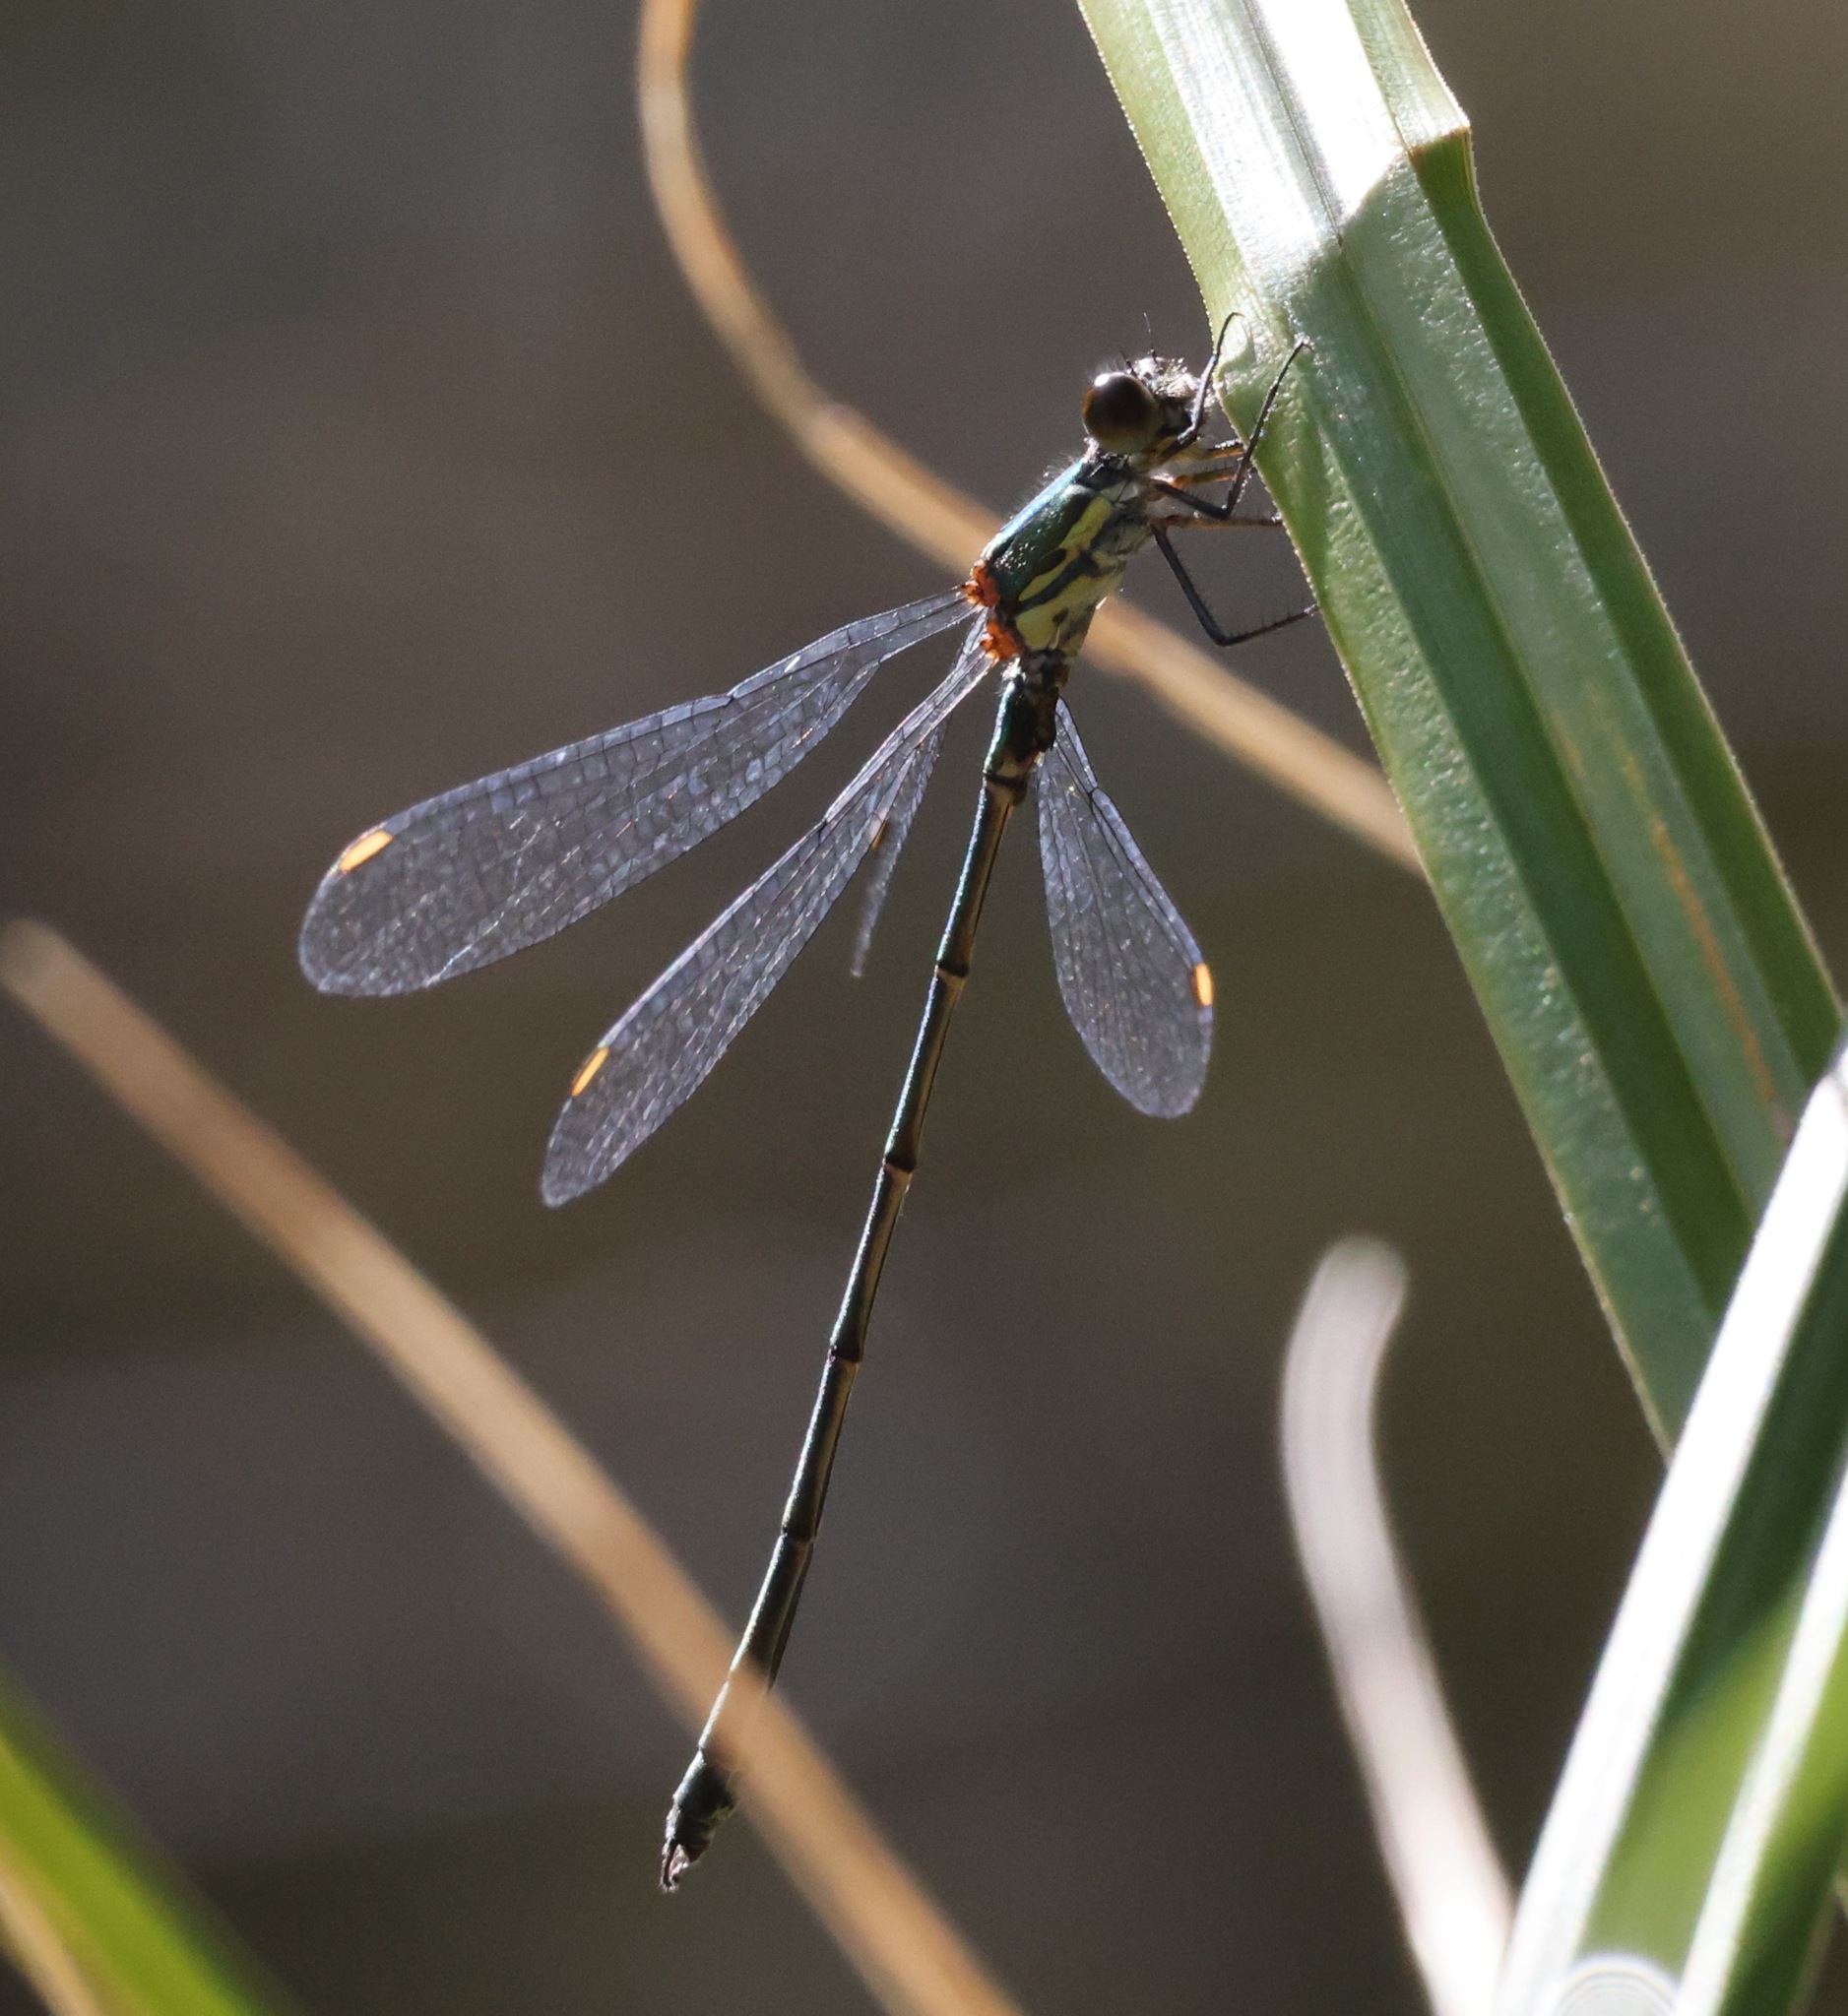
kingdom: Animalia
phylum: Arthropoda
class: Insecta
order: Odonata
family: Lestidae
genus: Chalcolestes
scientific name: Chalcolestes viridis
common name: Green emerald damselfly
